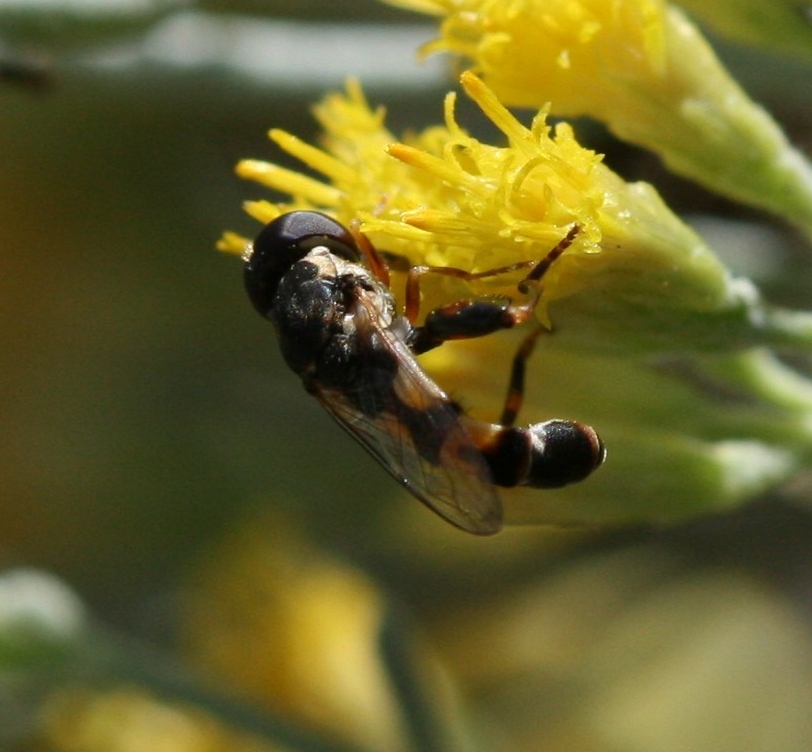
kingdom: Animalia
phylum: Arthropoda
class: Insecta
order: Diptera
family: Syrphidae
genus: Syritta
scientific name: Syritta pipiens
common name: Hover fly
